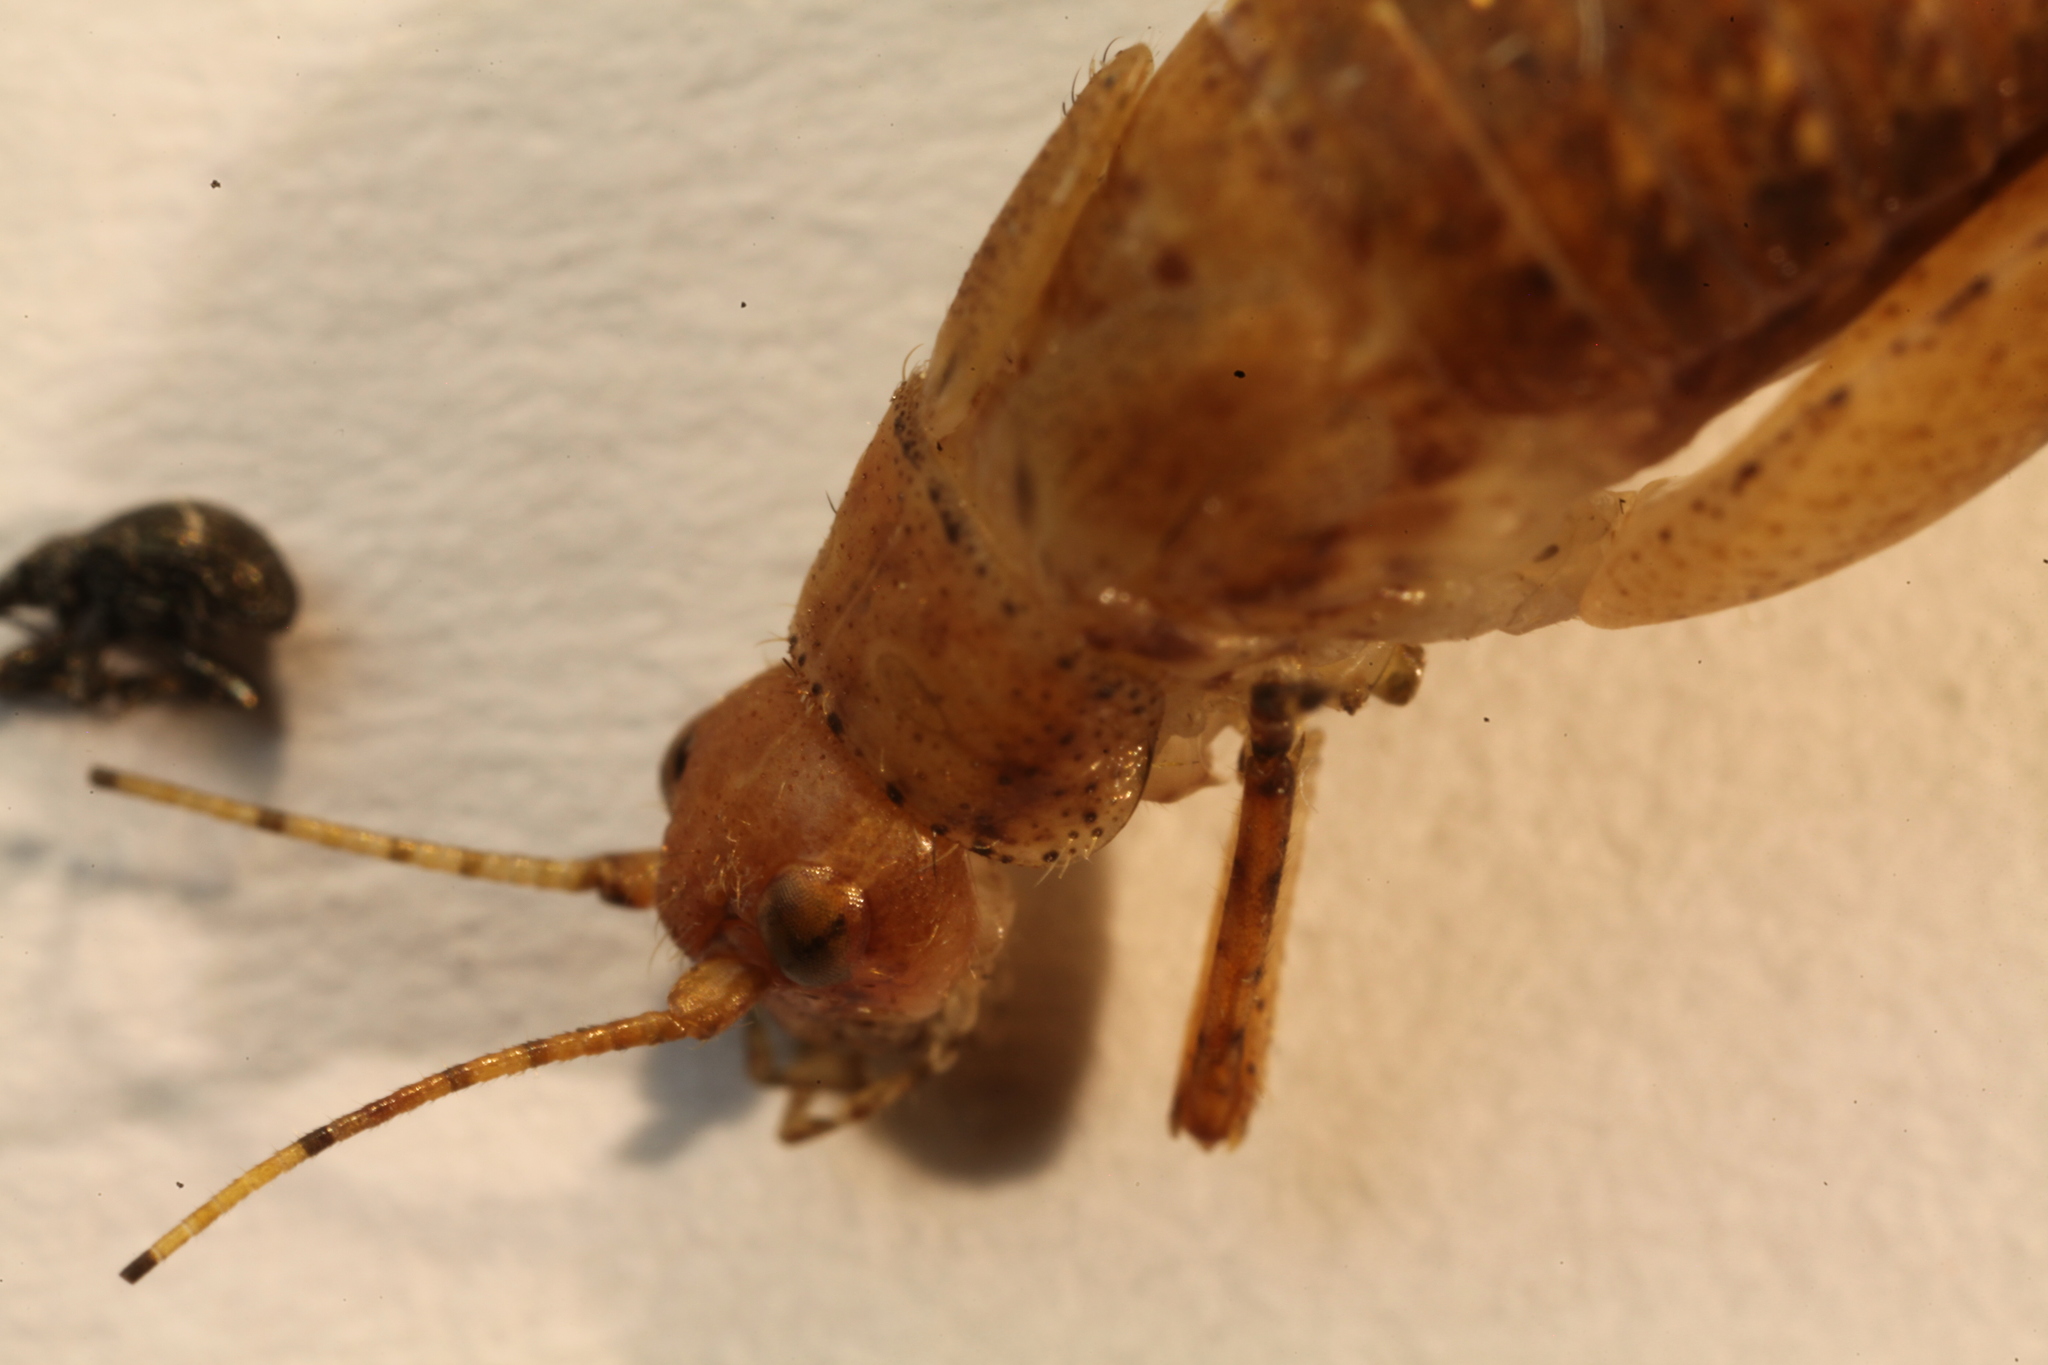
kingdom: Animalia
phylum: Arthropoda
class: Insecta
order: Orthoptera
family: Gryllidae
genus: Hapithus
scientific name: Hapithus saltator
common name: Jumping bush cricket
